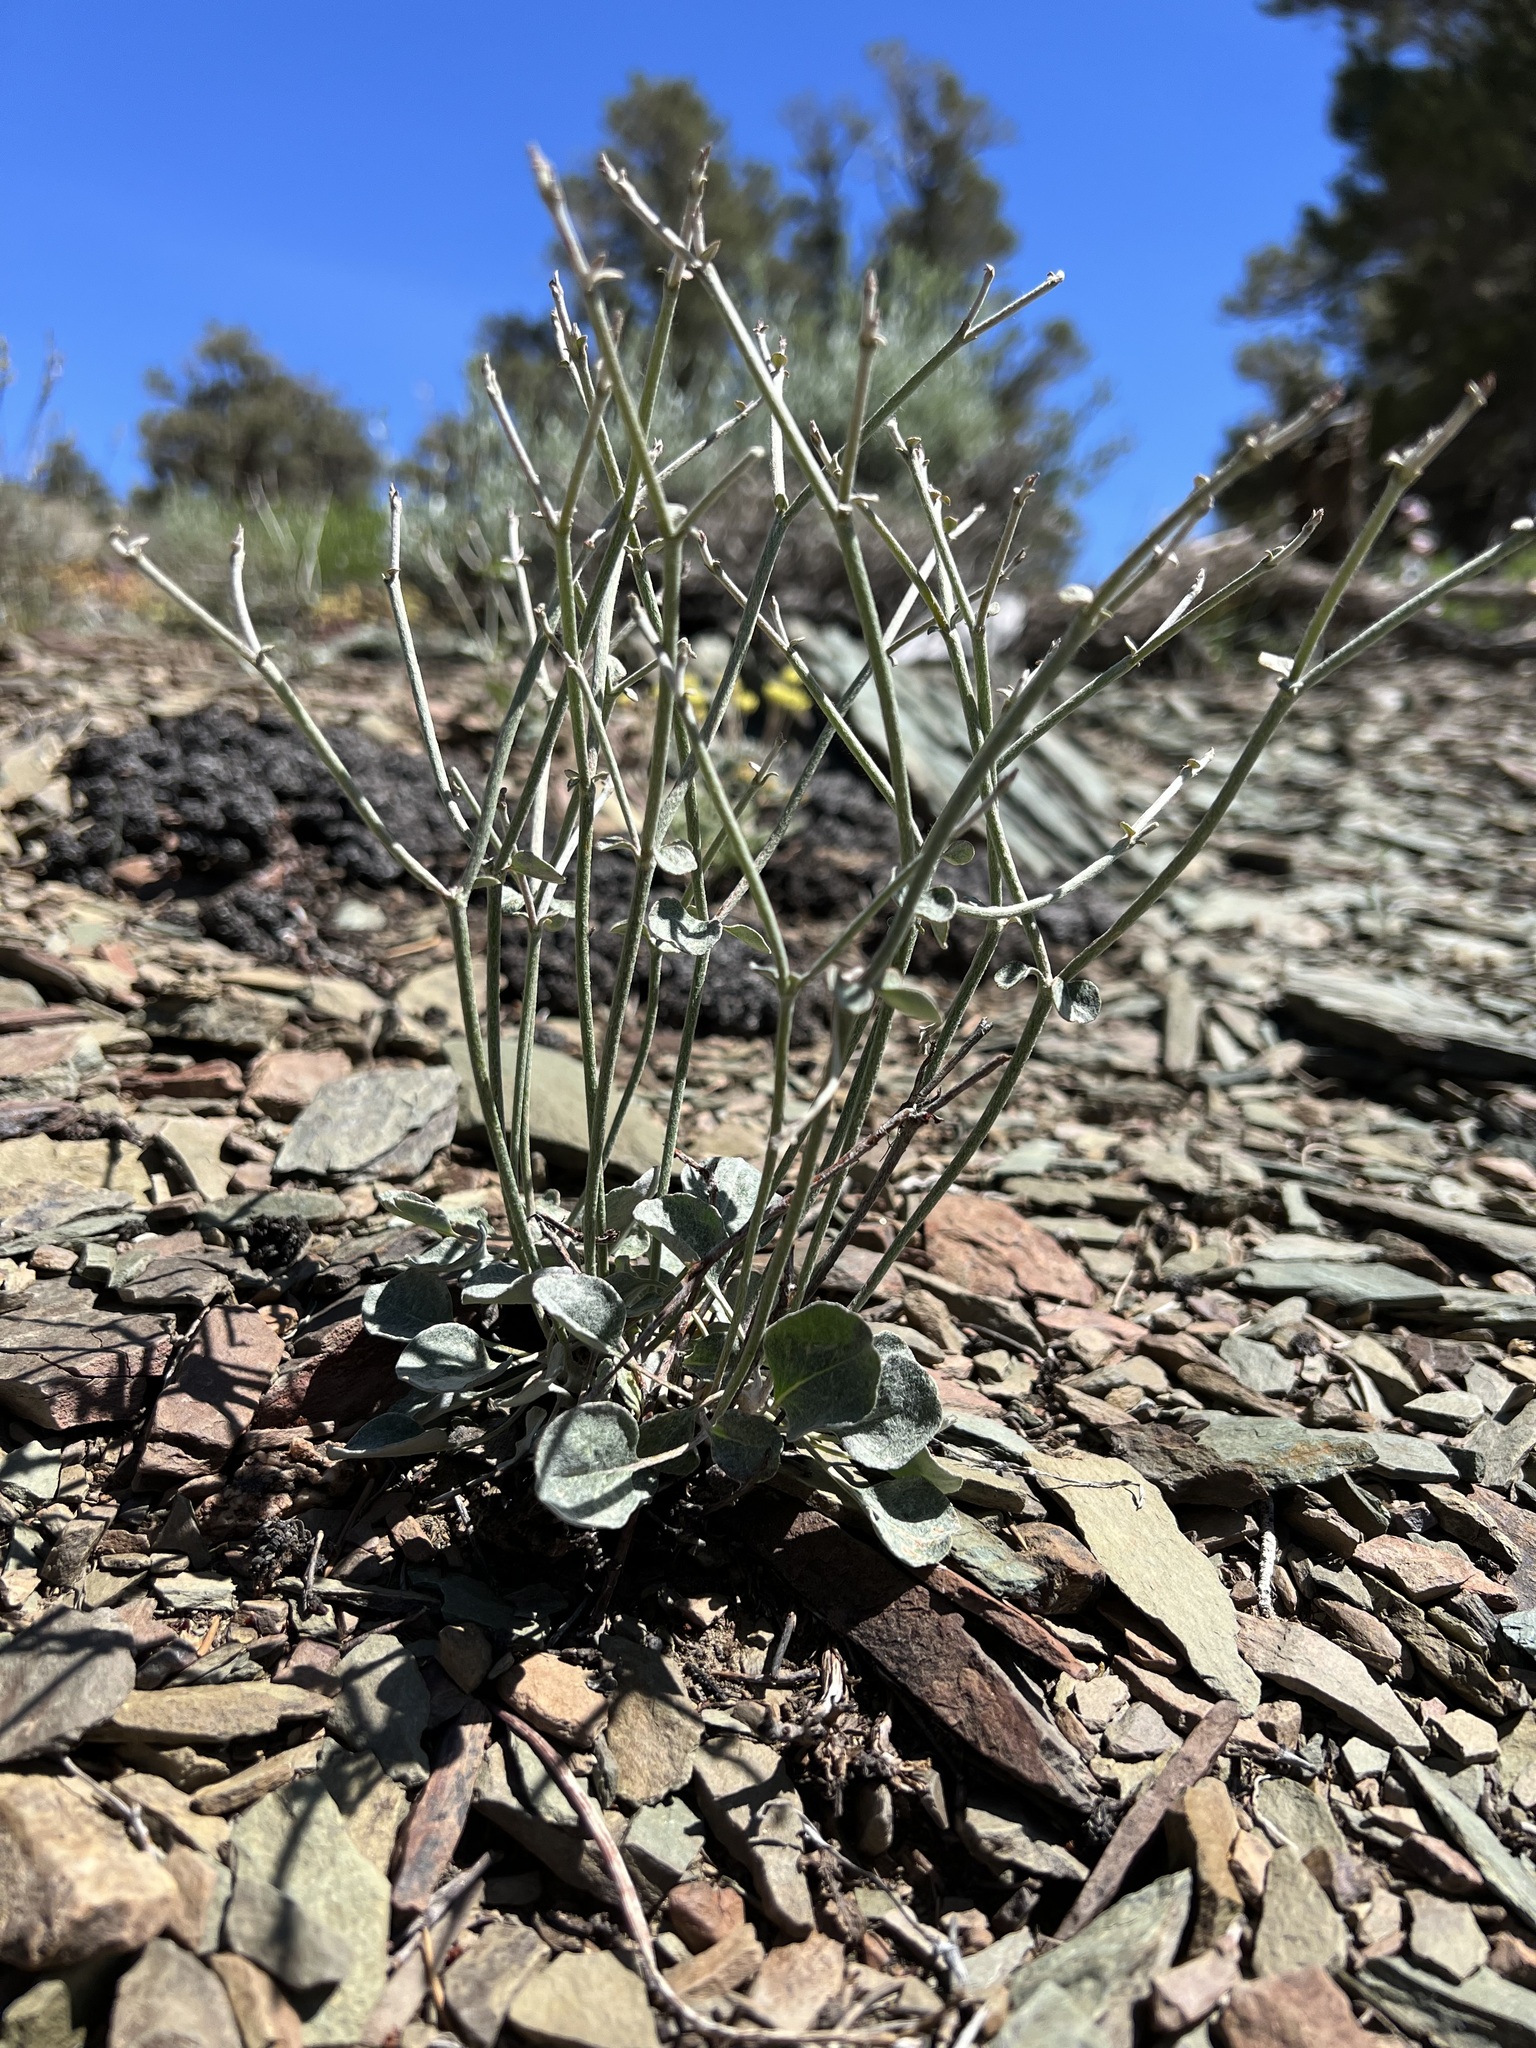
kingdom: Plantae
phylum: Tracheophyta
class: Magnoliopsida
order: Caryophyllales
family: Polygonaceae
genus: Eriogonum
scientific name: Eriogonum panamintense
